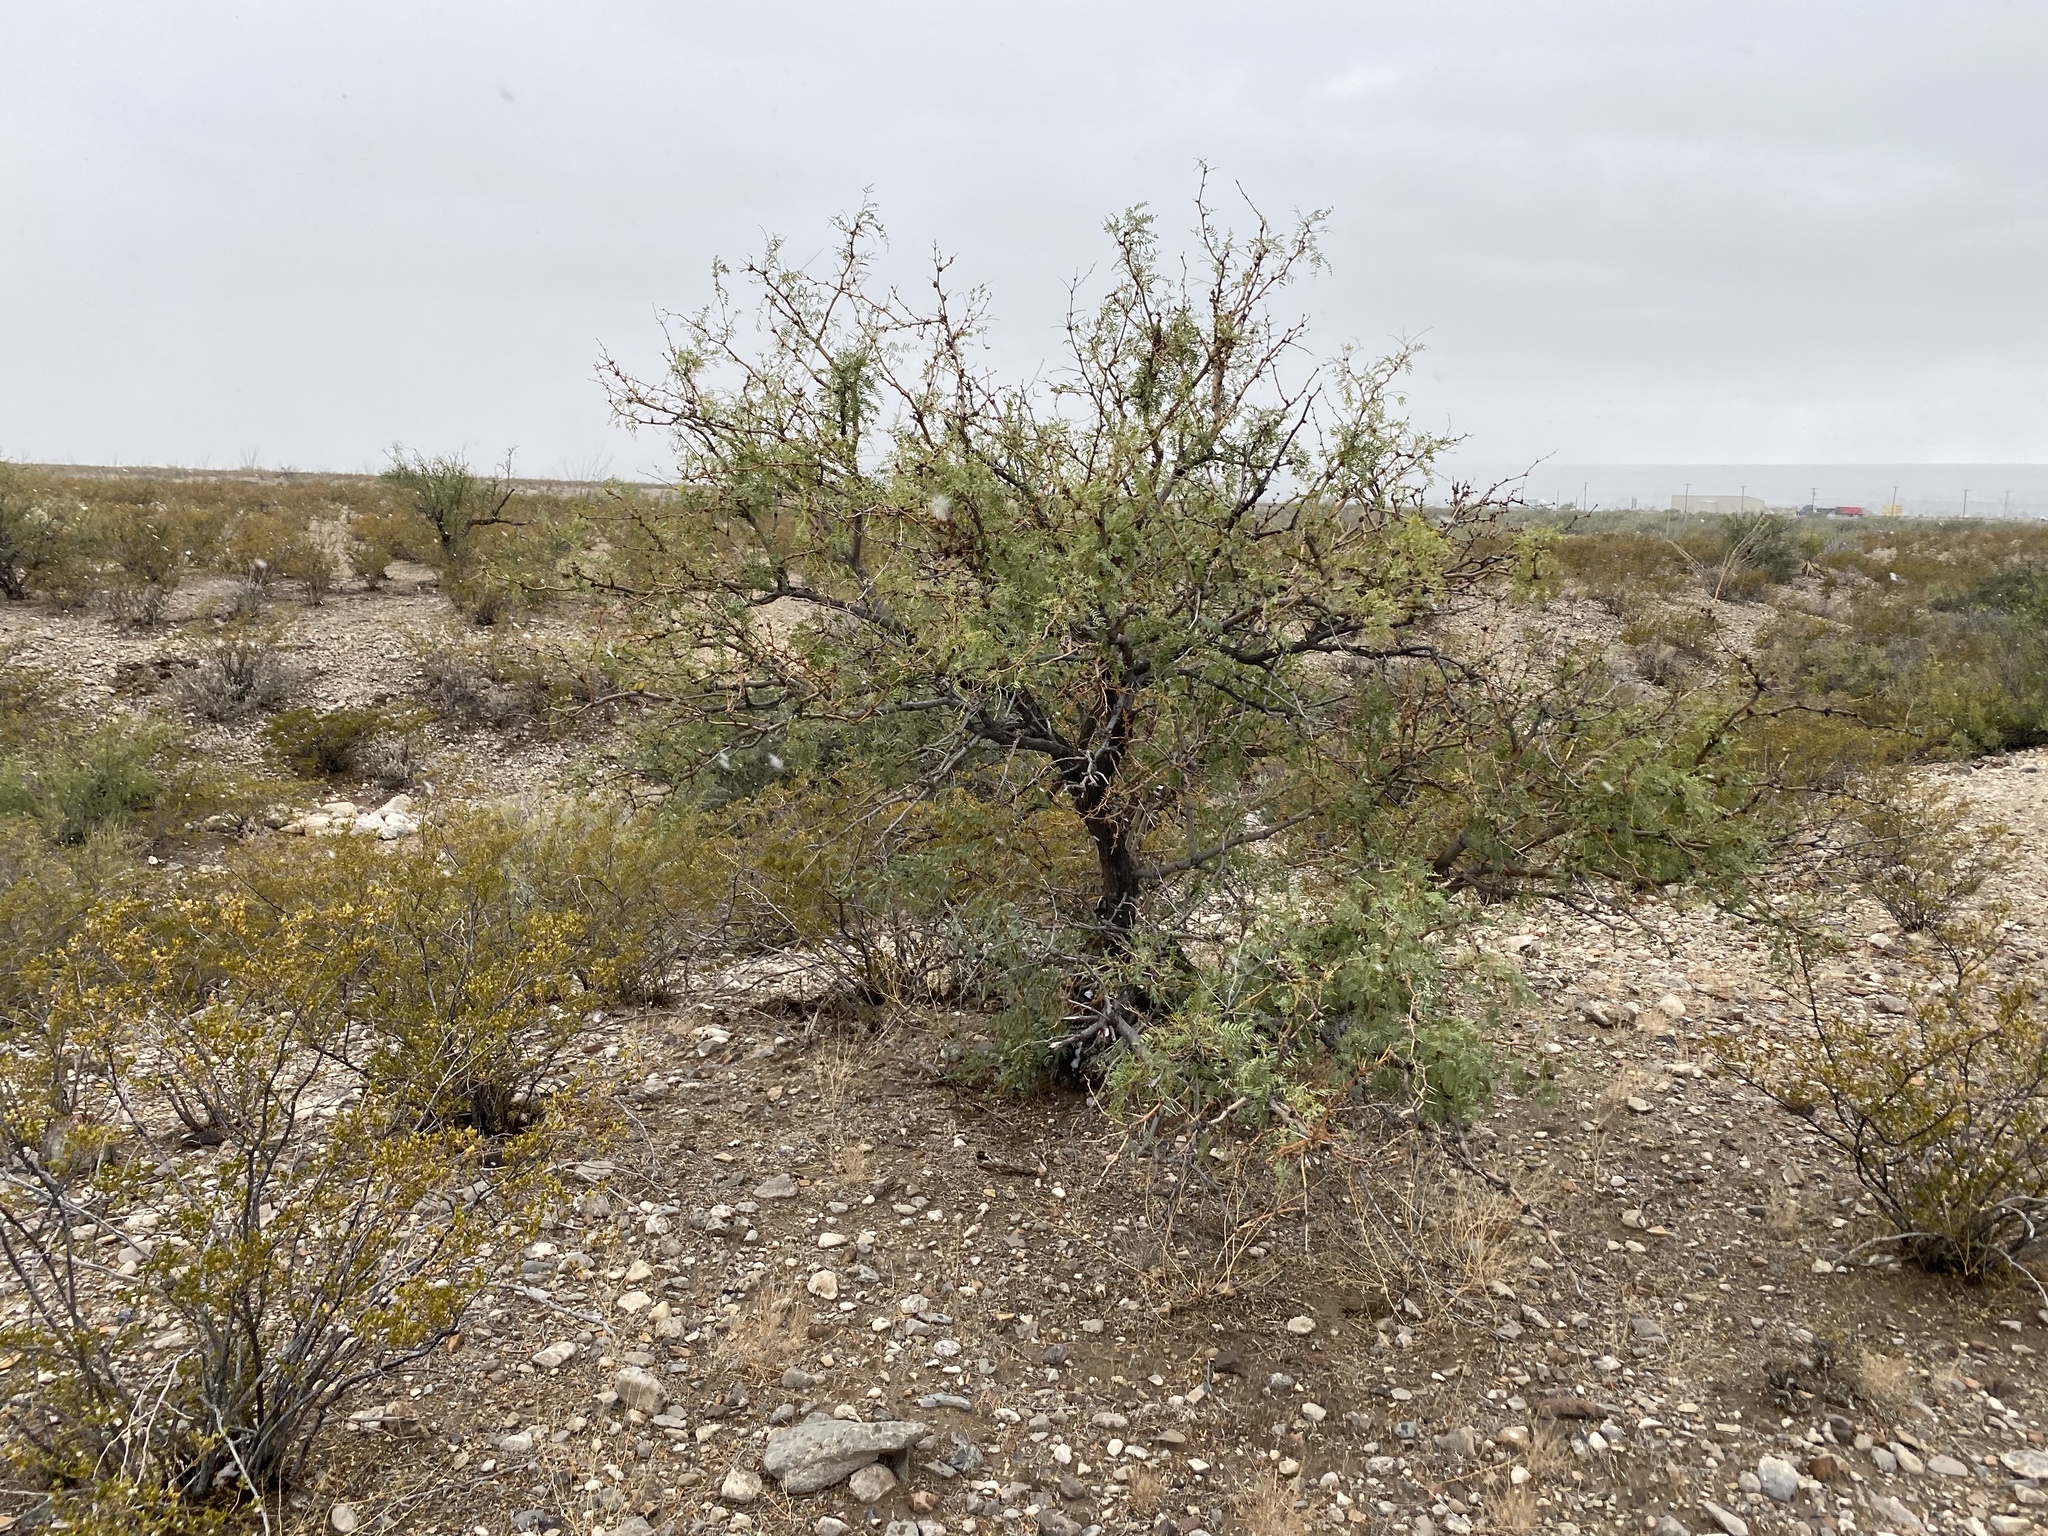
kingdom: Plantae
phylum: Tracheophyta
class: Magnoliopsida
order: Fabales
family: Fabaceae
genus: Prosopis
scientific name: Prosopis glandulosa
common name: Honey mesquite
